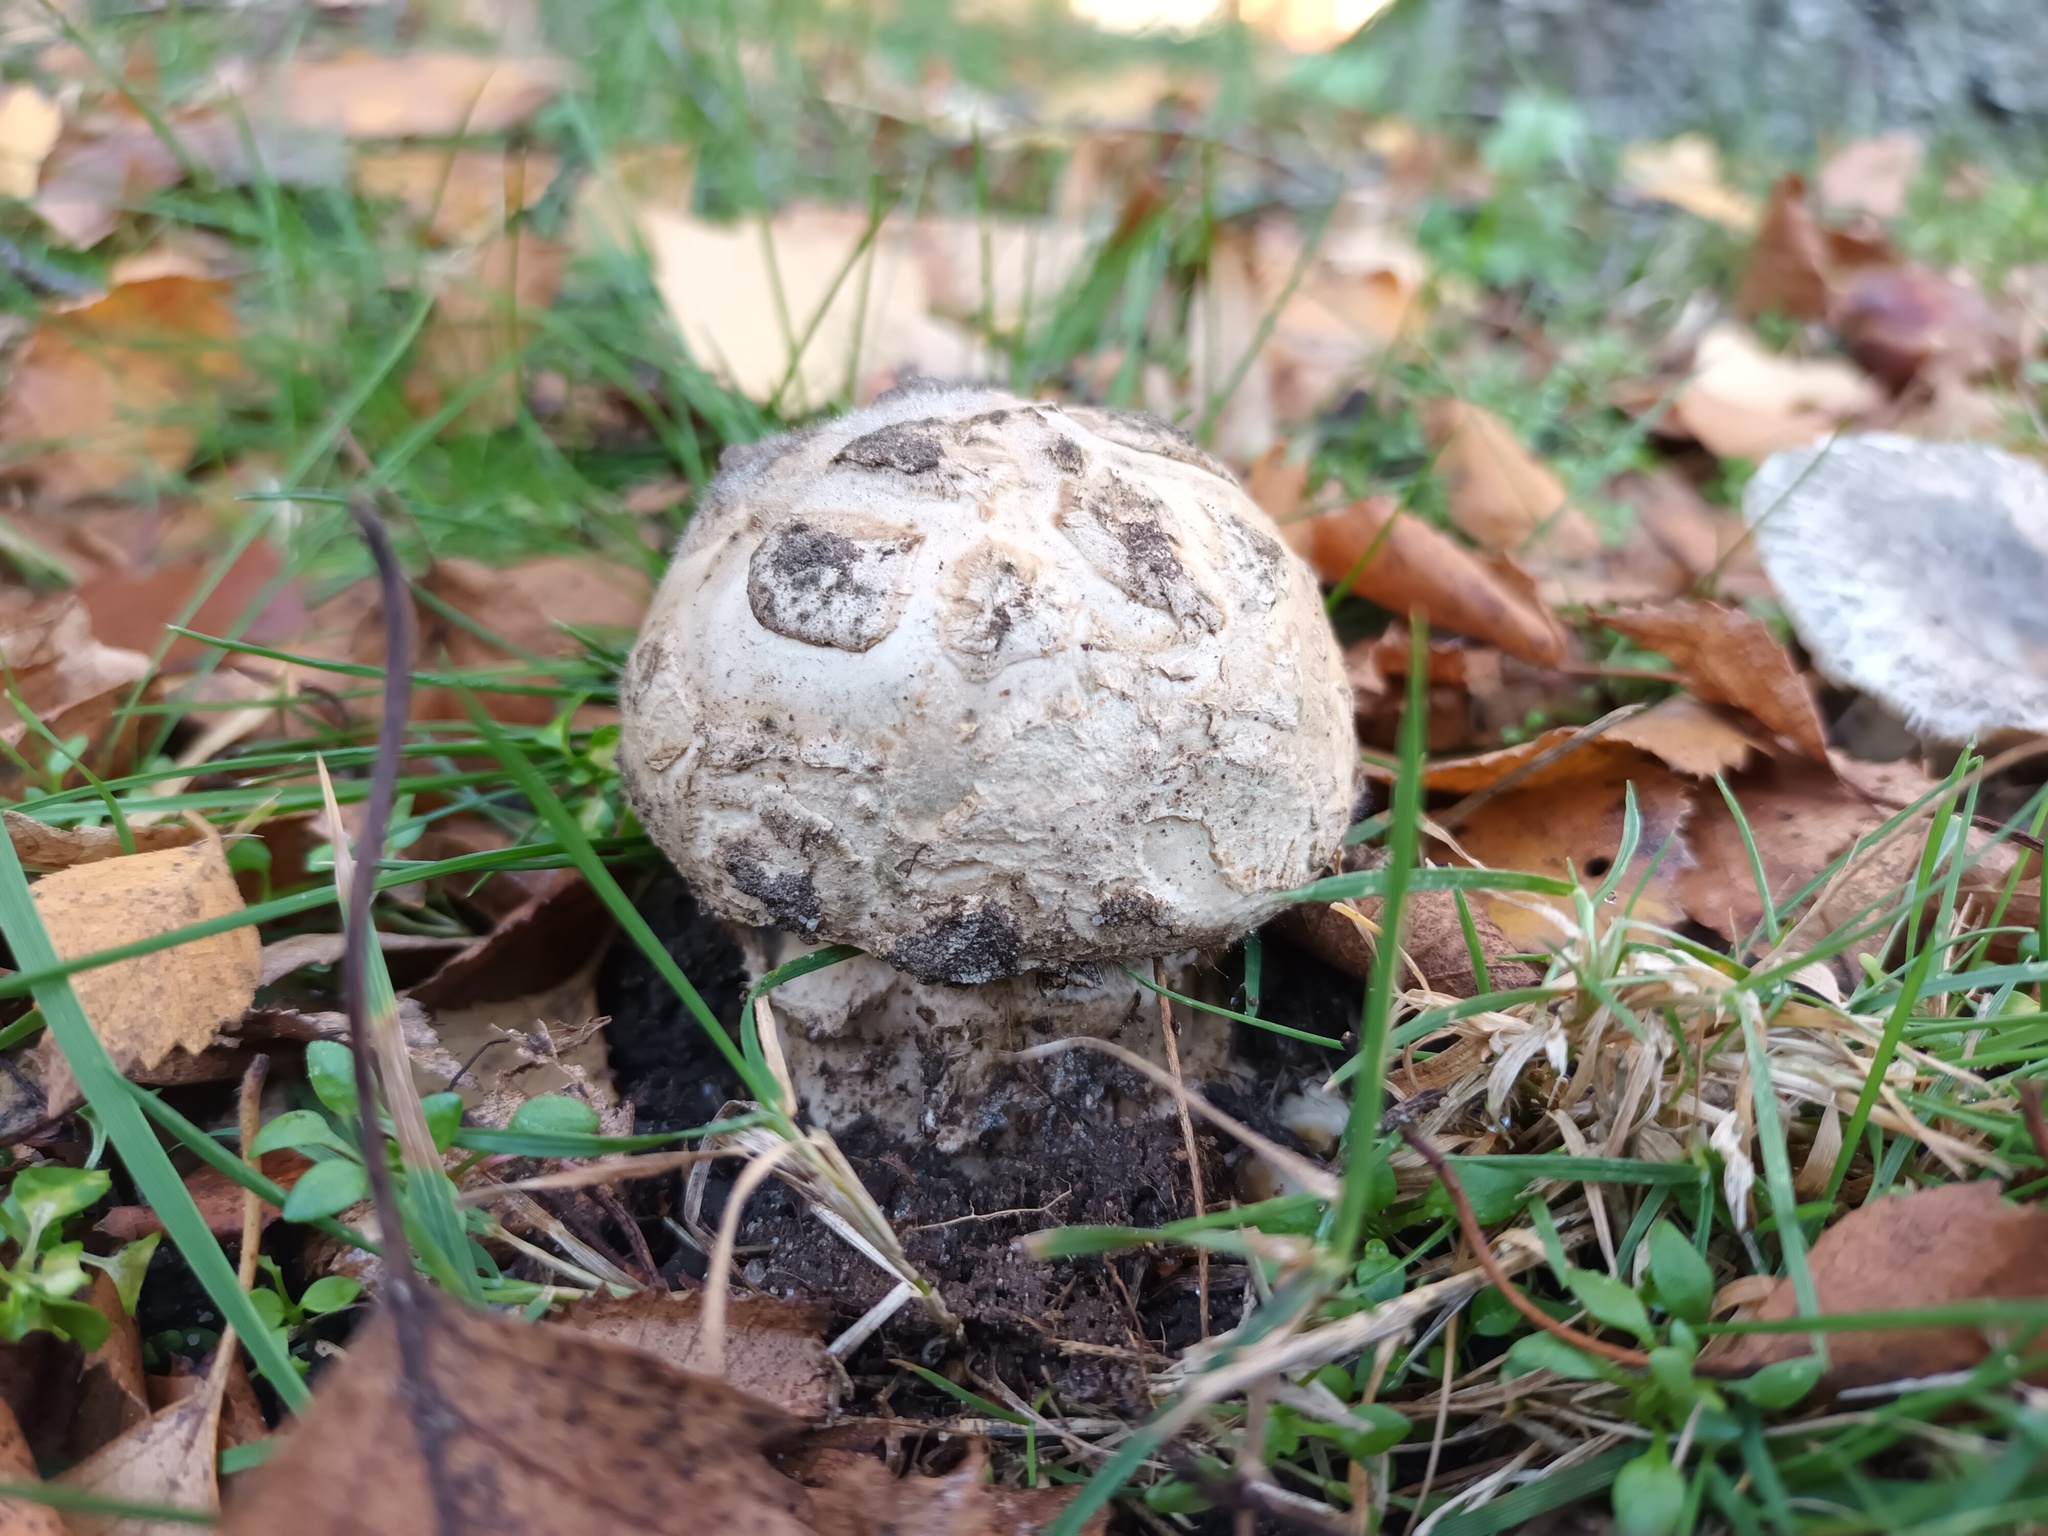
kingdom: Fungi
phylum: Basidiomycota
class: Agaricomycetes
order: Agaricales
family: Amanitaceae
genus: Amanita
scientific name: Amanita strobiliformis
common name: Warted amanita
